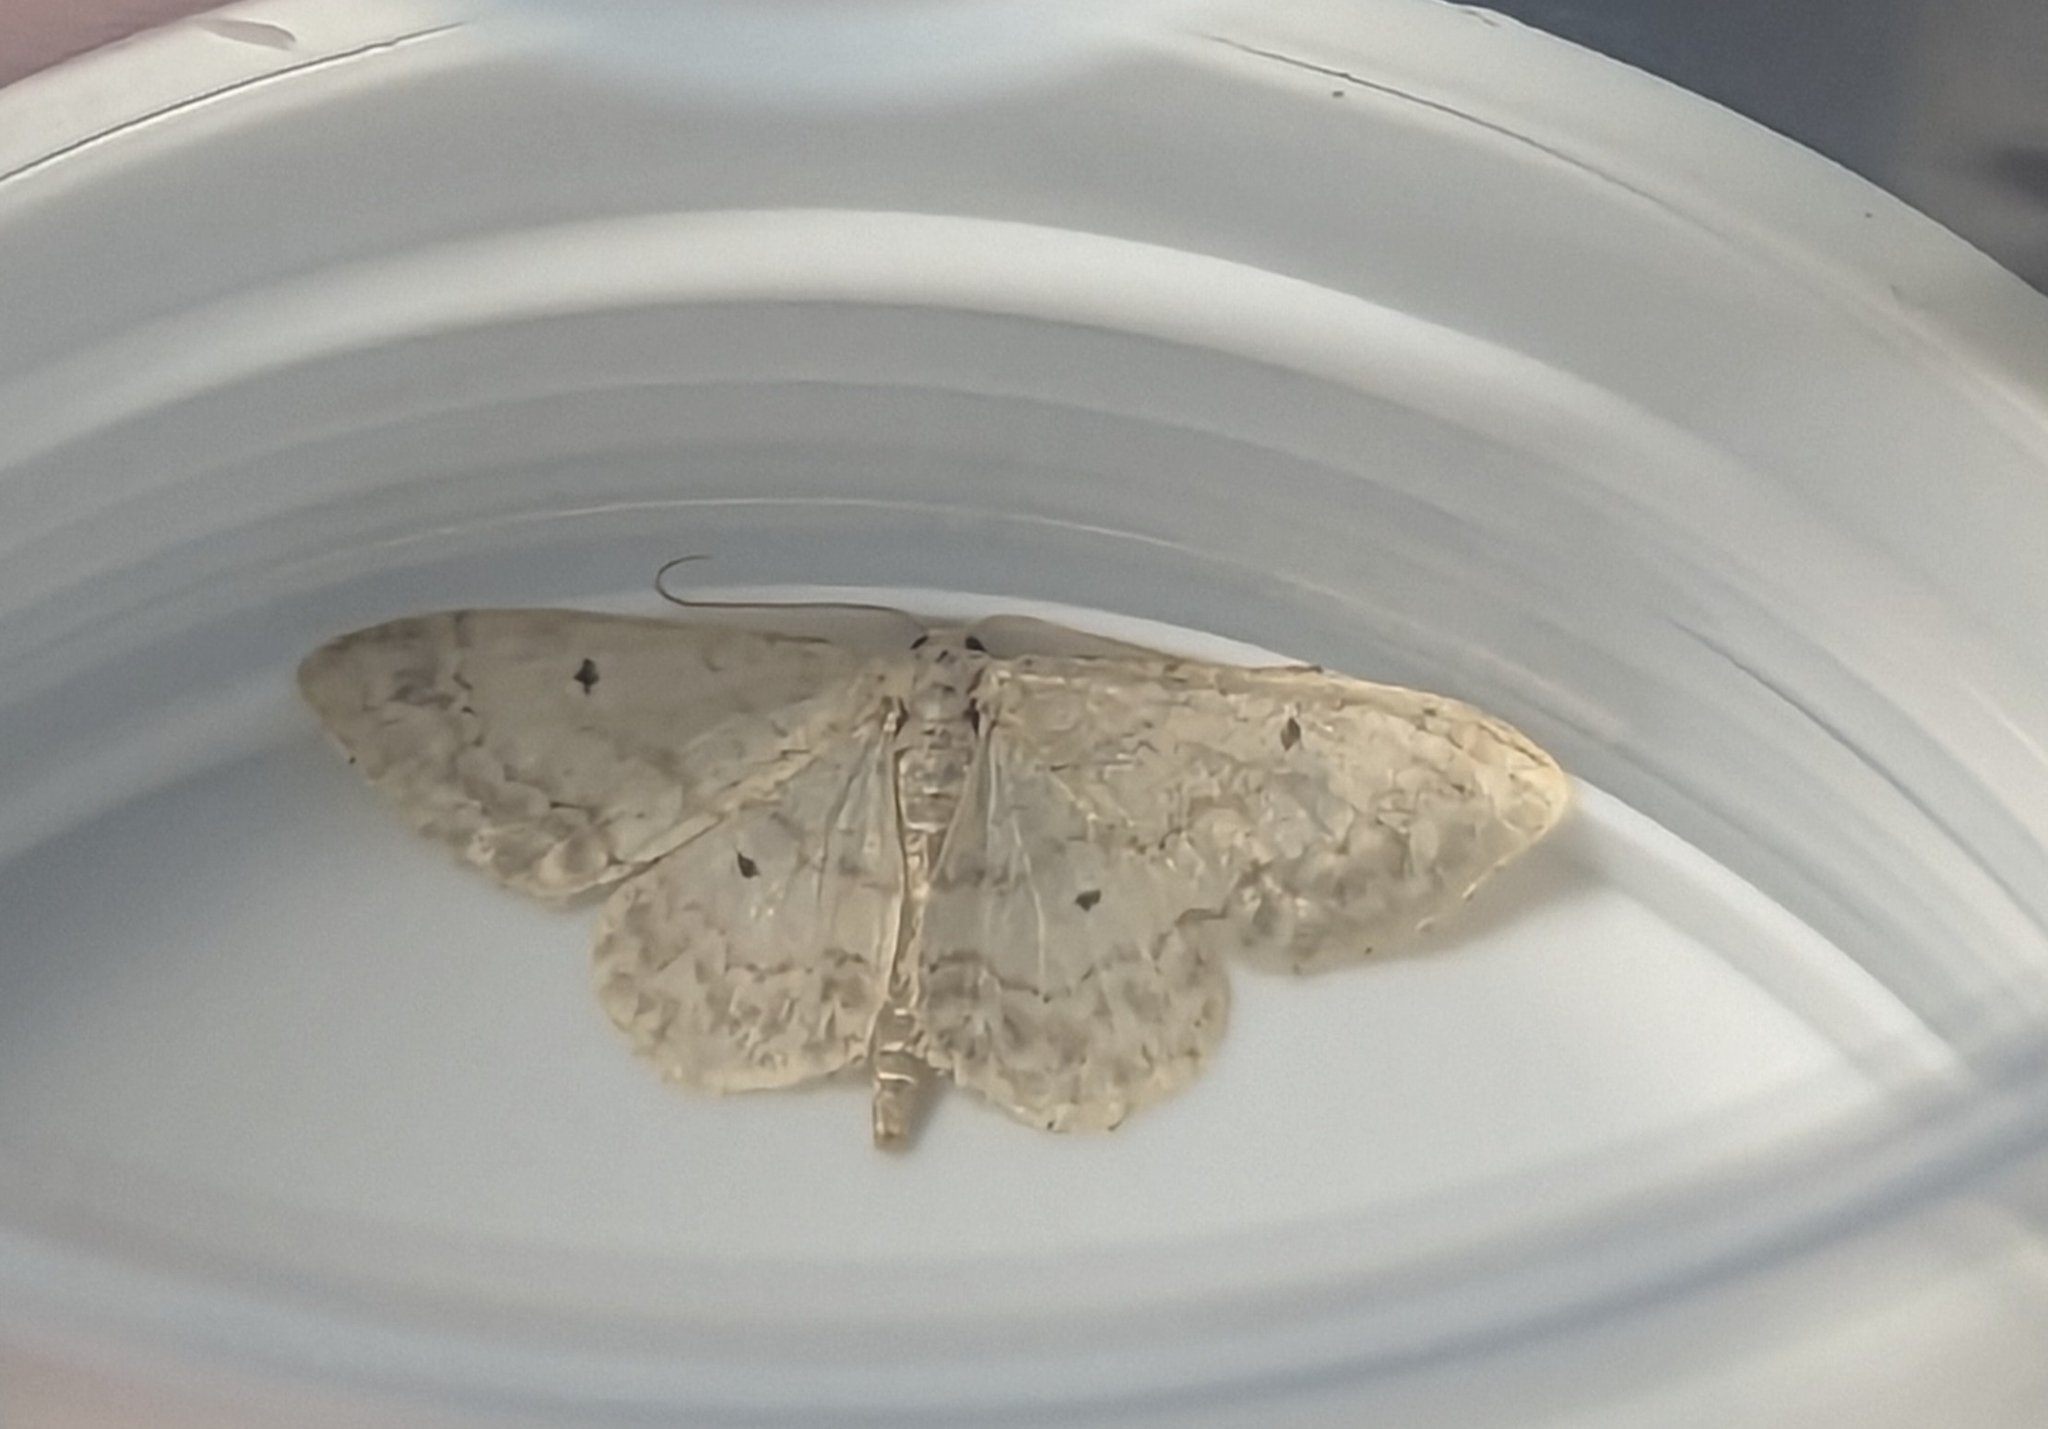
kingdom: Animalia
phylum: Arthropoda
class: Insecta
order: Lepidoptera
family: Geometridae
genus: Idaea
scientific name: Idaea biselata
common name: Small fan-footed wave
